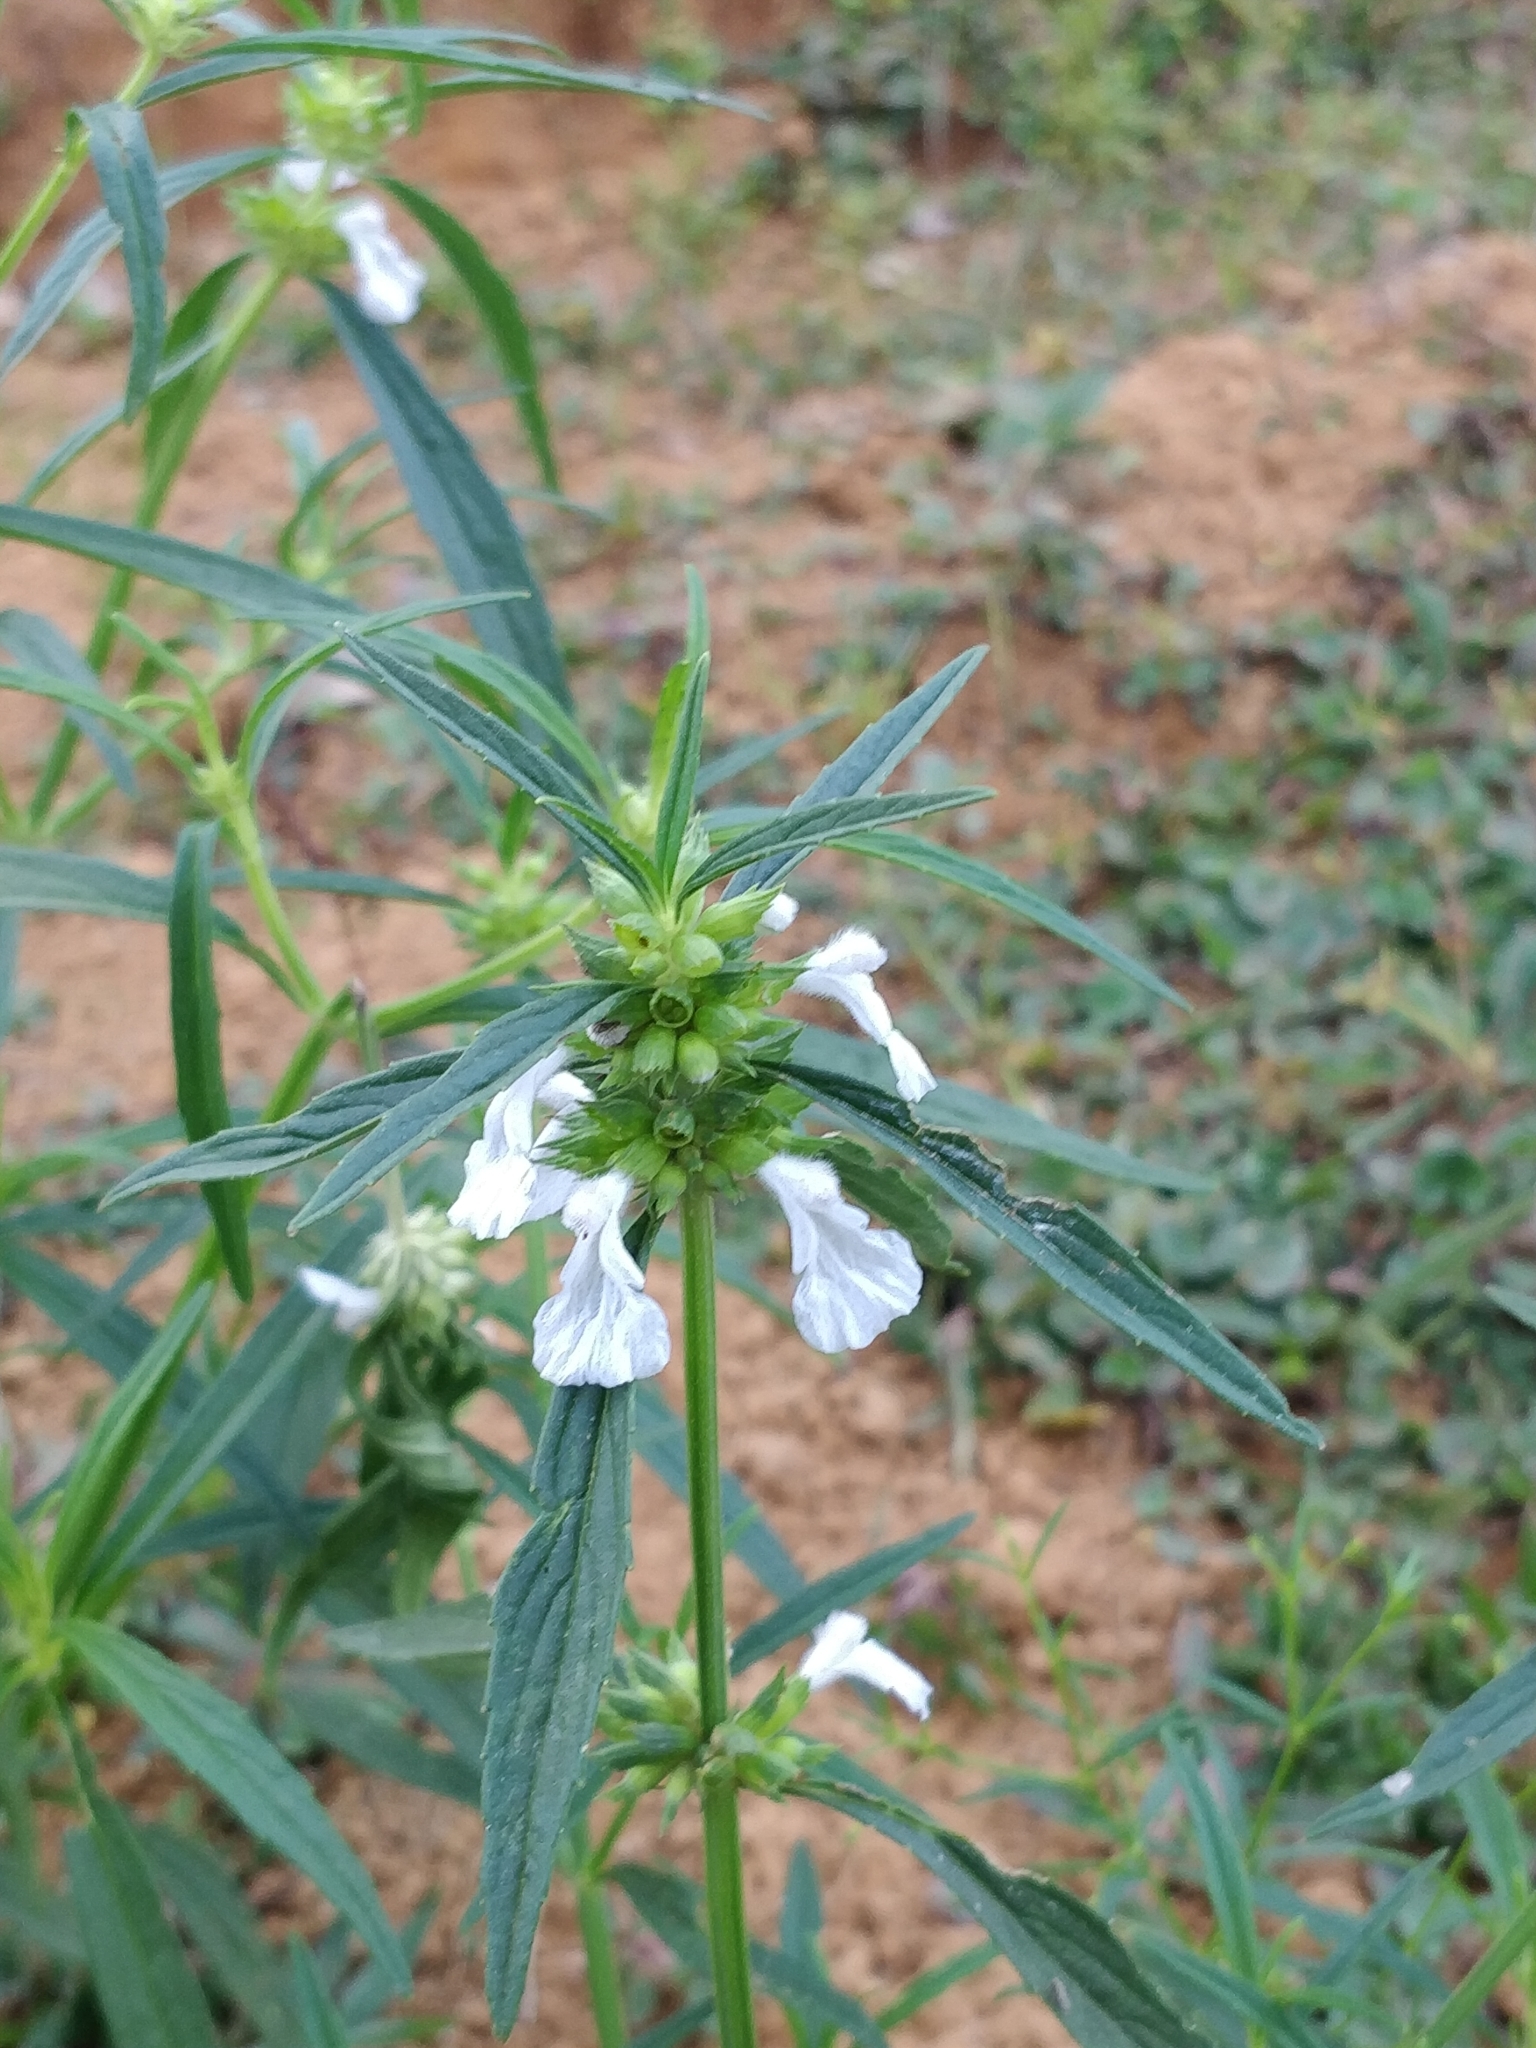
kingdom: Plantae
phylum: Tracheophyta
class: Magnoliopsida
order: Lamiales
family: Lamiaceae
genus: Leucas
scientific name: Leucas aspera
